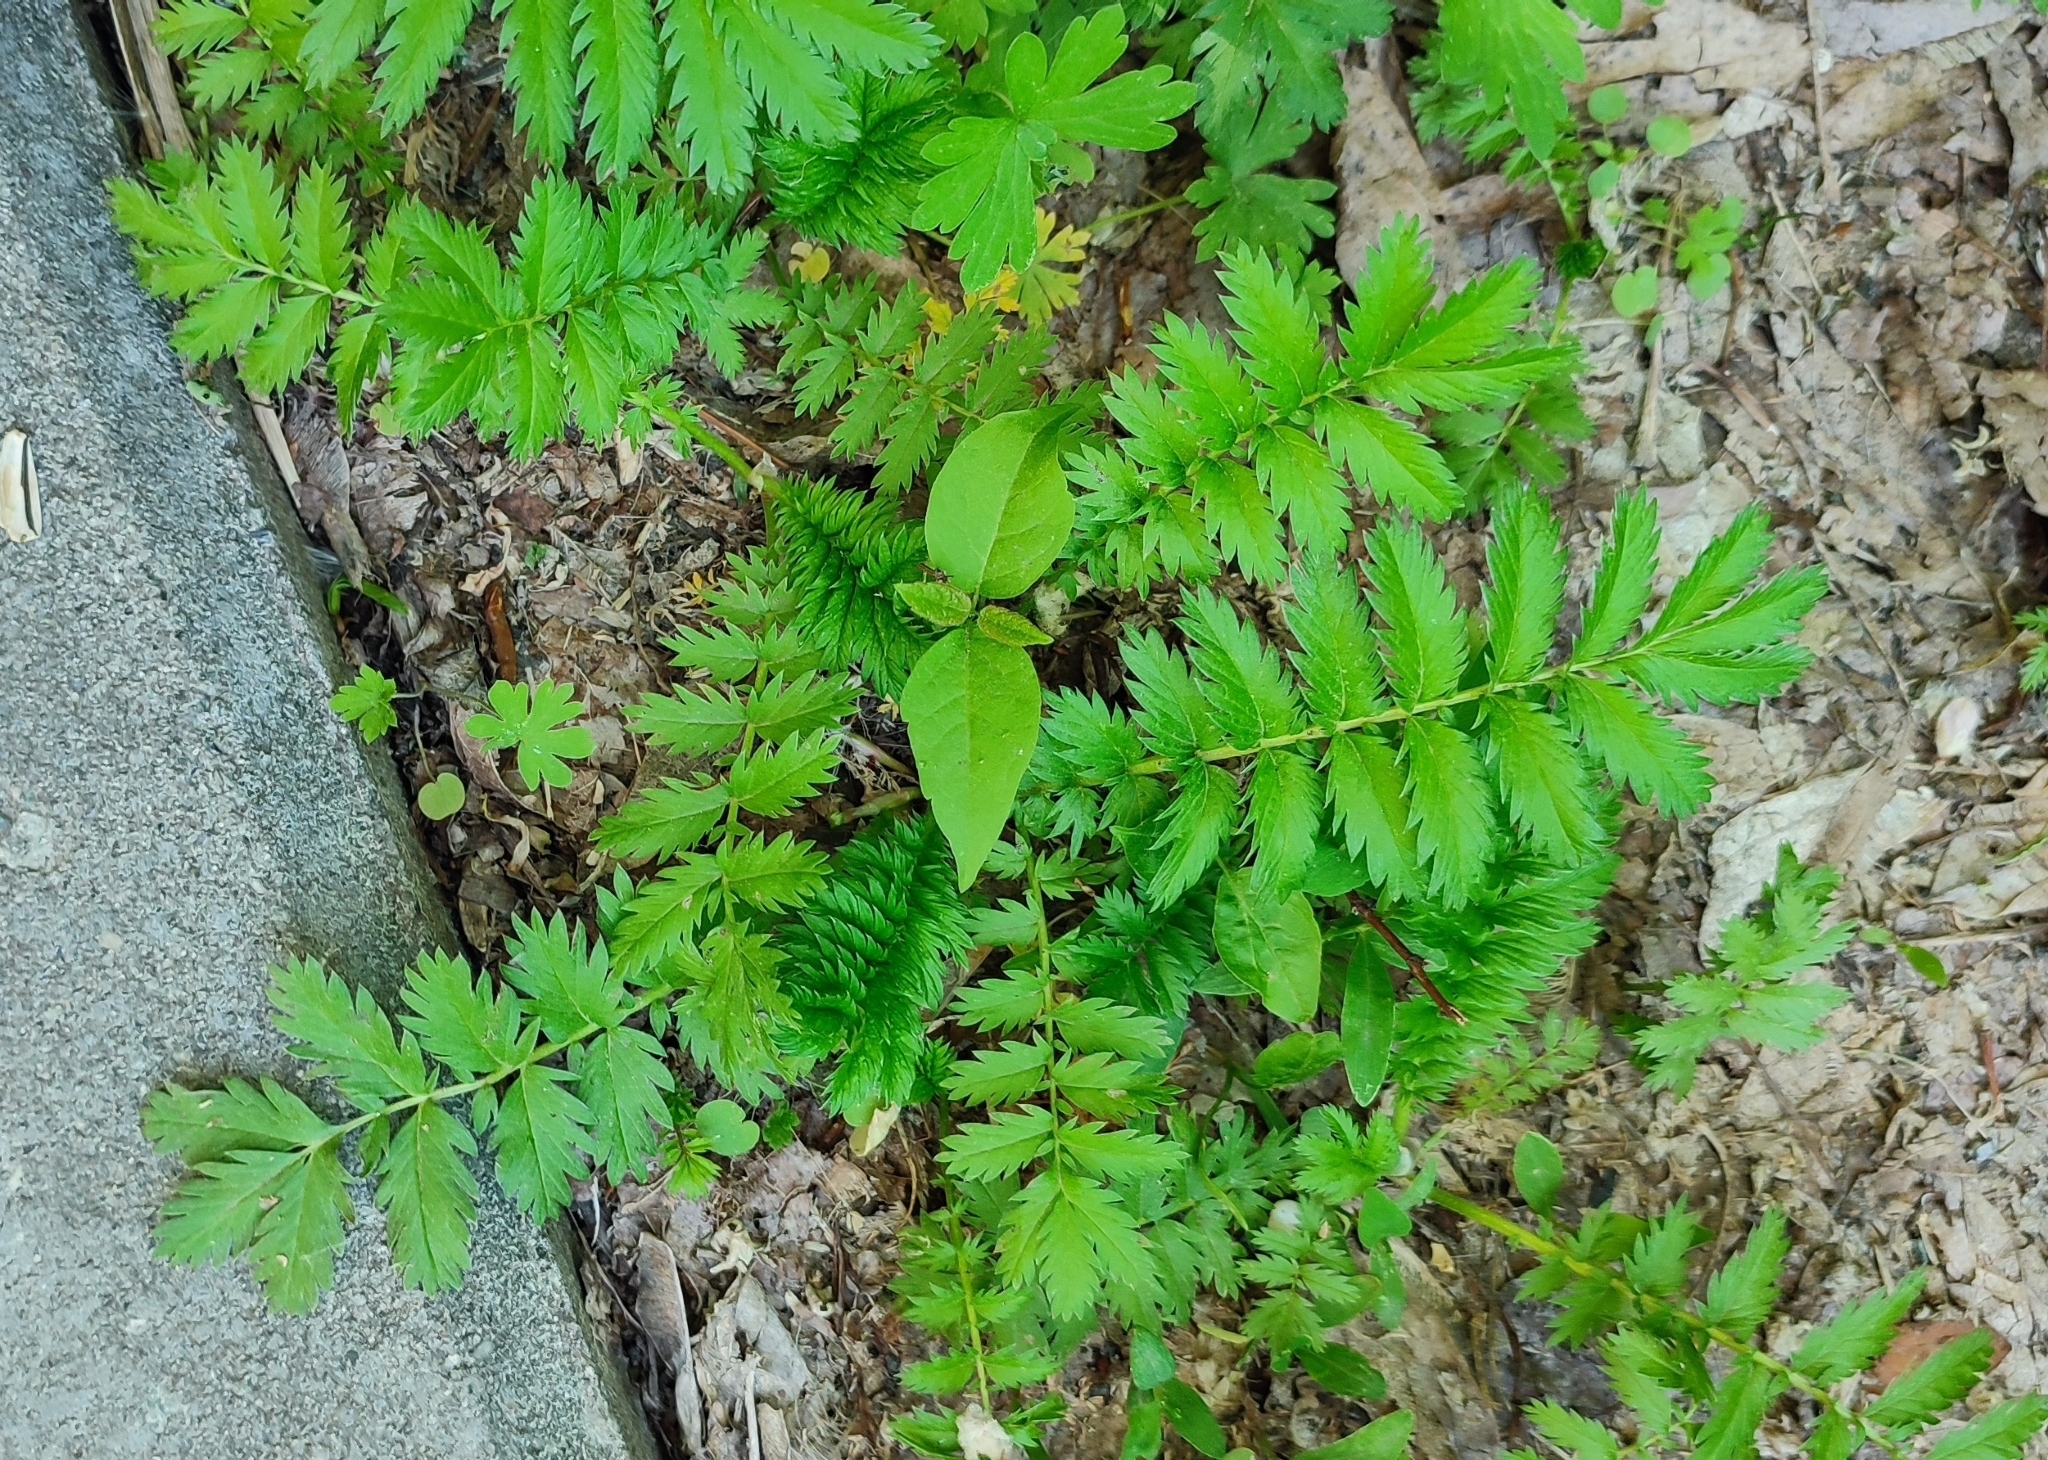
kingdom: Plantae
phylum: Tracheophyta
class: Magnoliopsida
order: Rosales
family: Rosaceae
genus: Argentina
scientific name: Argentina anserina
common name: Common silverweed
